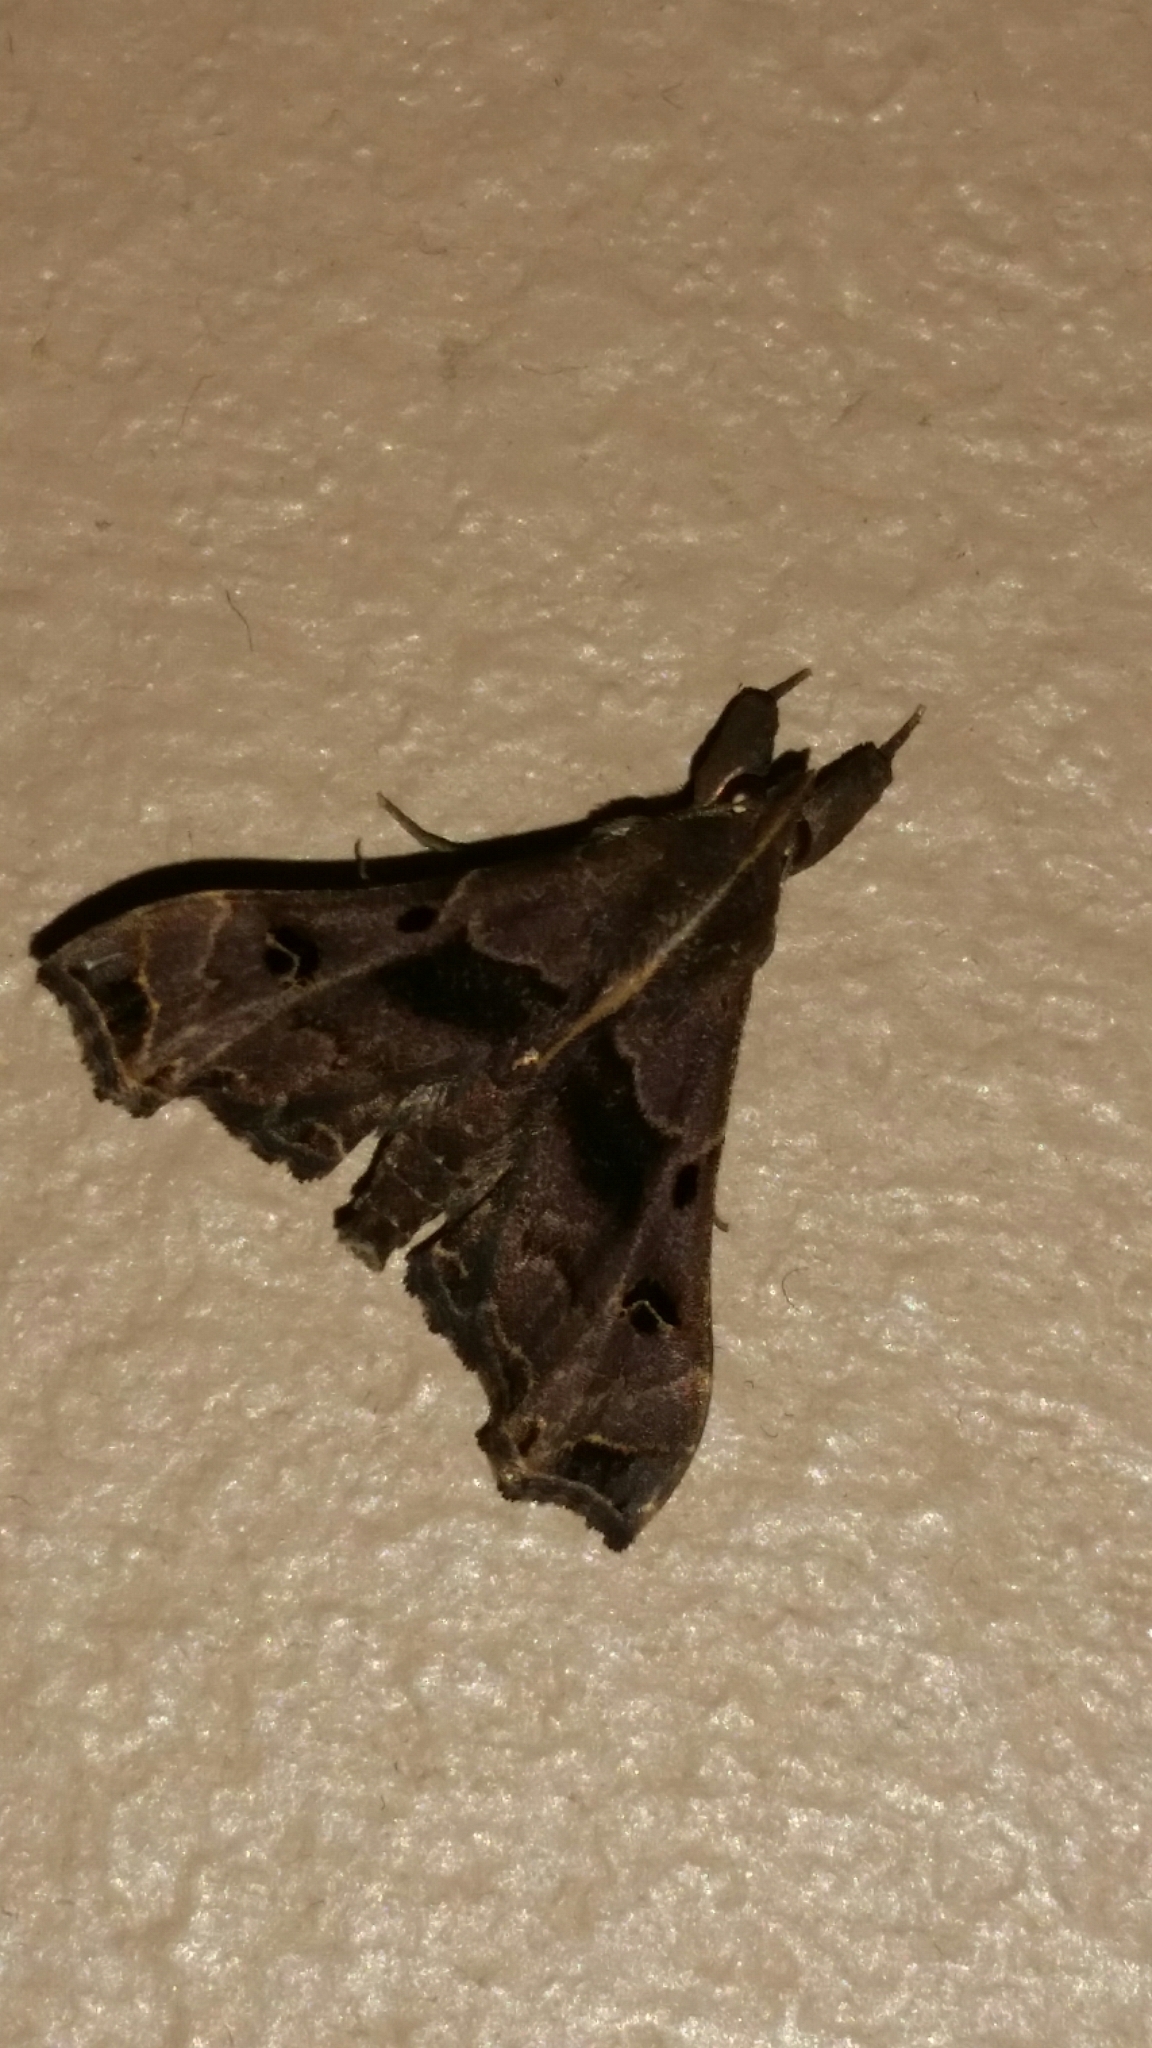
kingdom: Animalia
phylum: Arthropoda
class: Insecta
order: Lepidoptera
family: Erebidae
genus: Palthis
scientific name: Palthis asopialis
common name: Faint-spotted palthis moth
